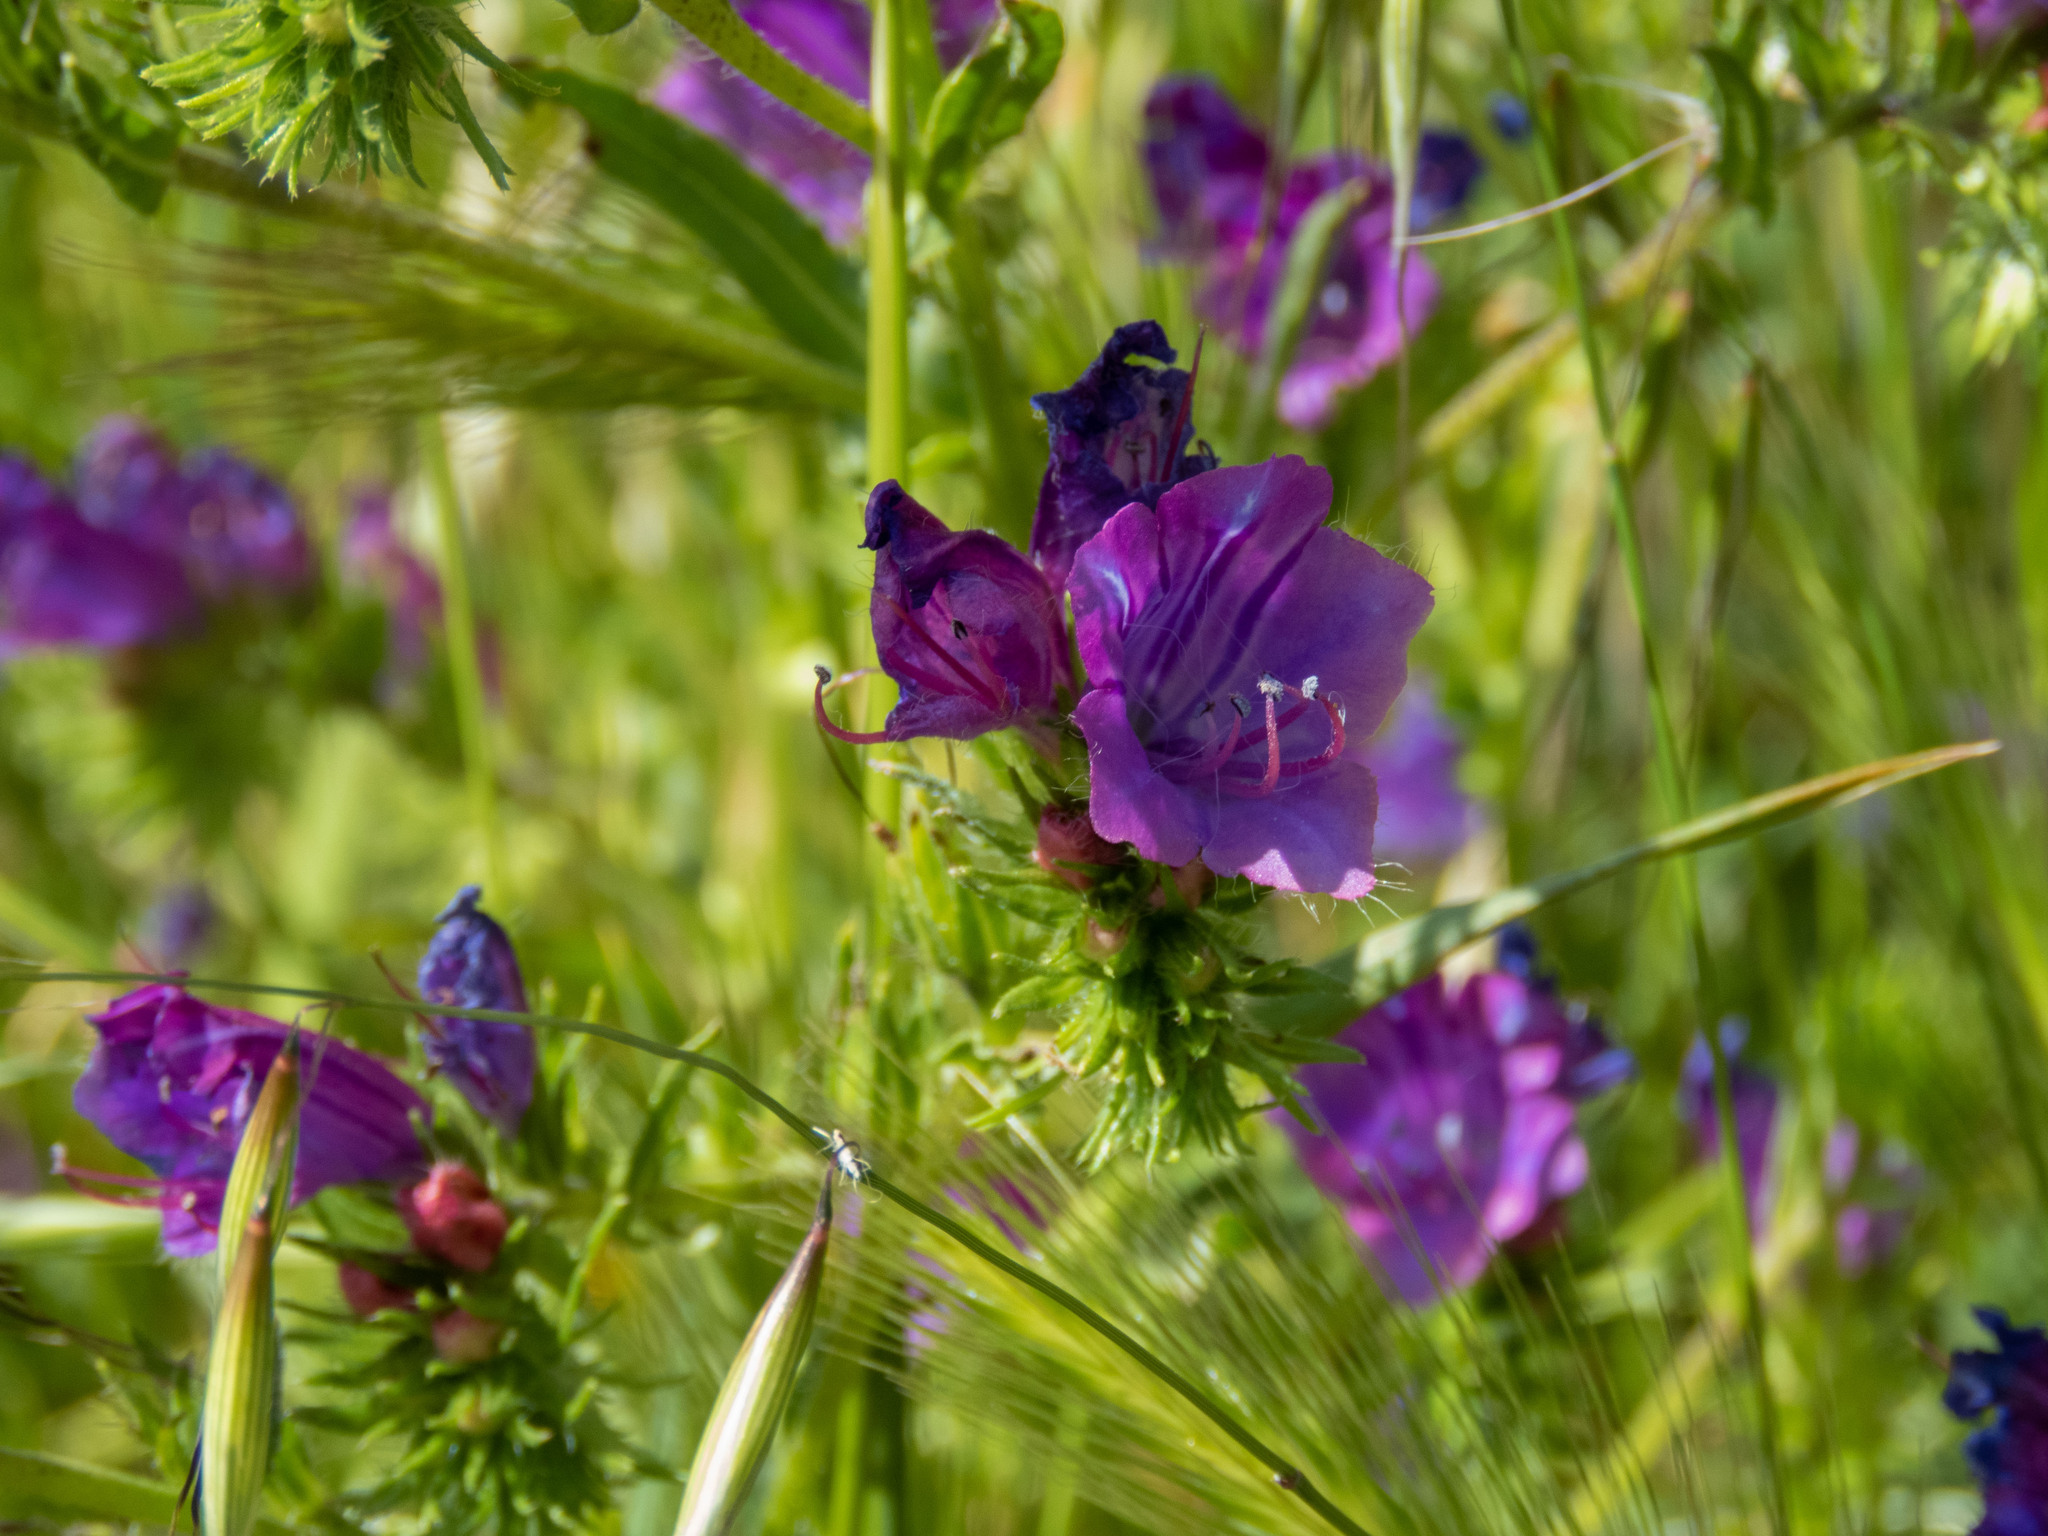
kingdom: Plantae
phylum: Tracheophyta
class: Magnoliopsida
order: Boraginales
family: Boraginaceae
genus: Echium
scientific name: Echium plantagineum
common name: Purple viper's-bugloss
